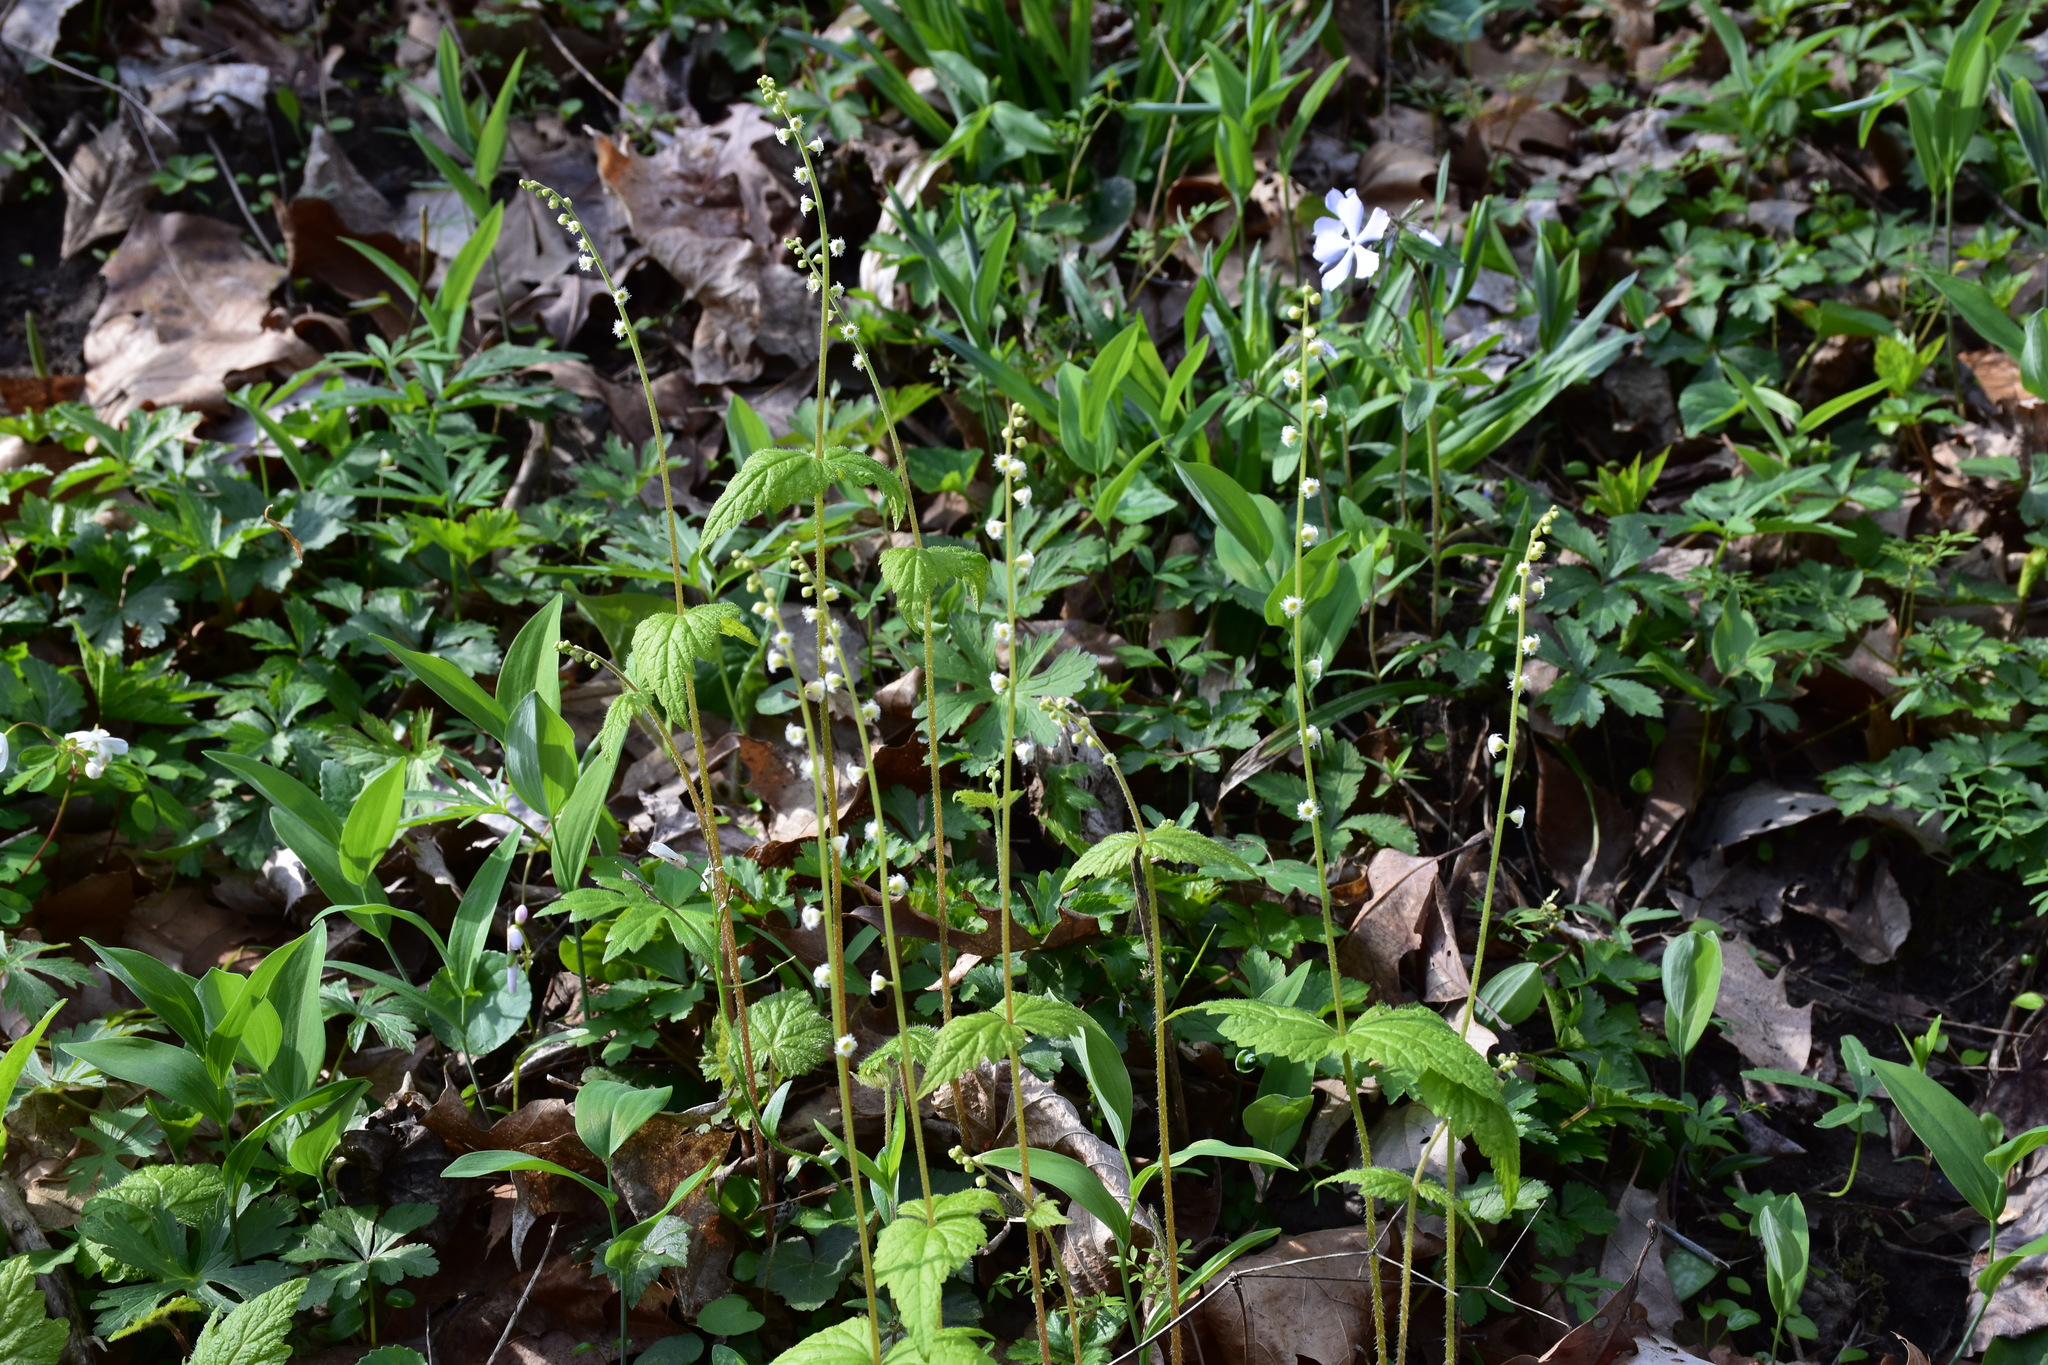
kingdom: Plantae
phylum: Tracheophyta
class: Magnoliopsida
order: Saxifragales
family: Saxifragaceae
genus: Mitella
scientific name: Mitella diphylla
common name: Coolwort
